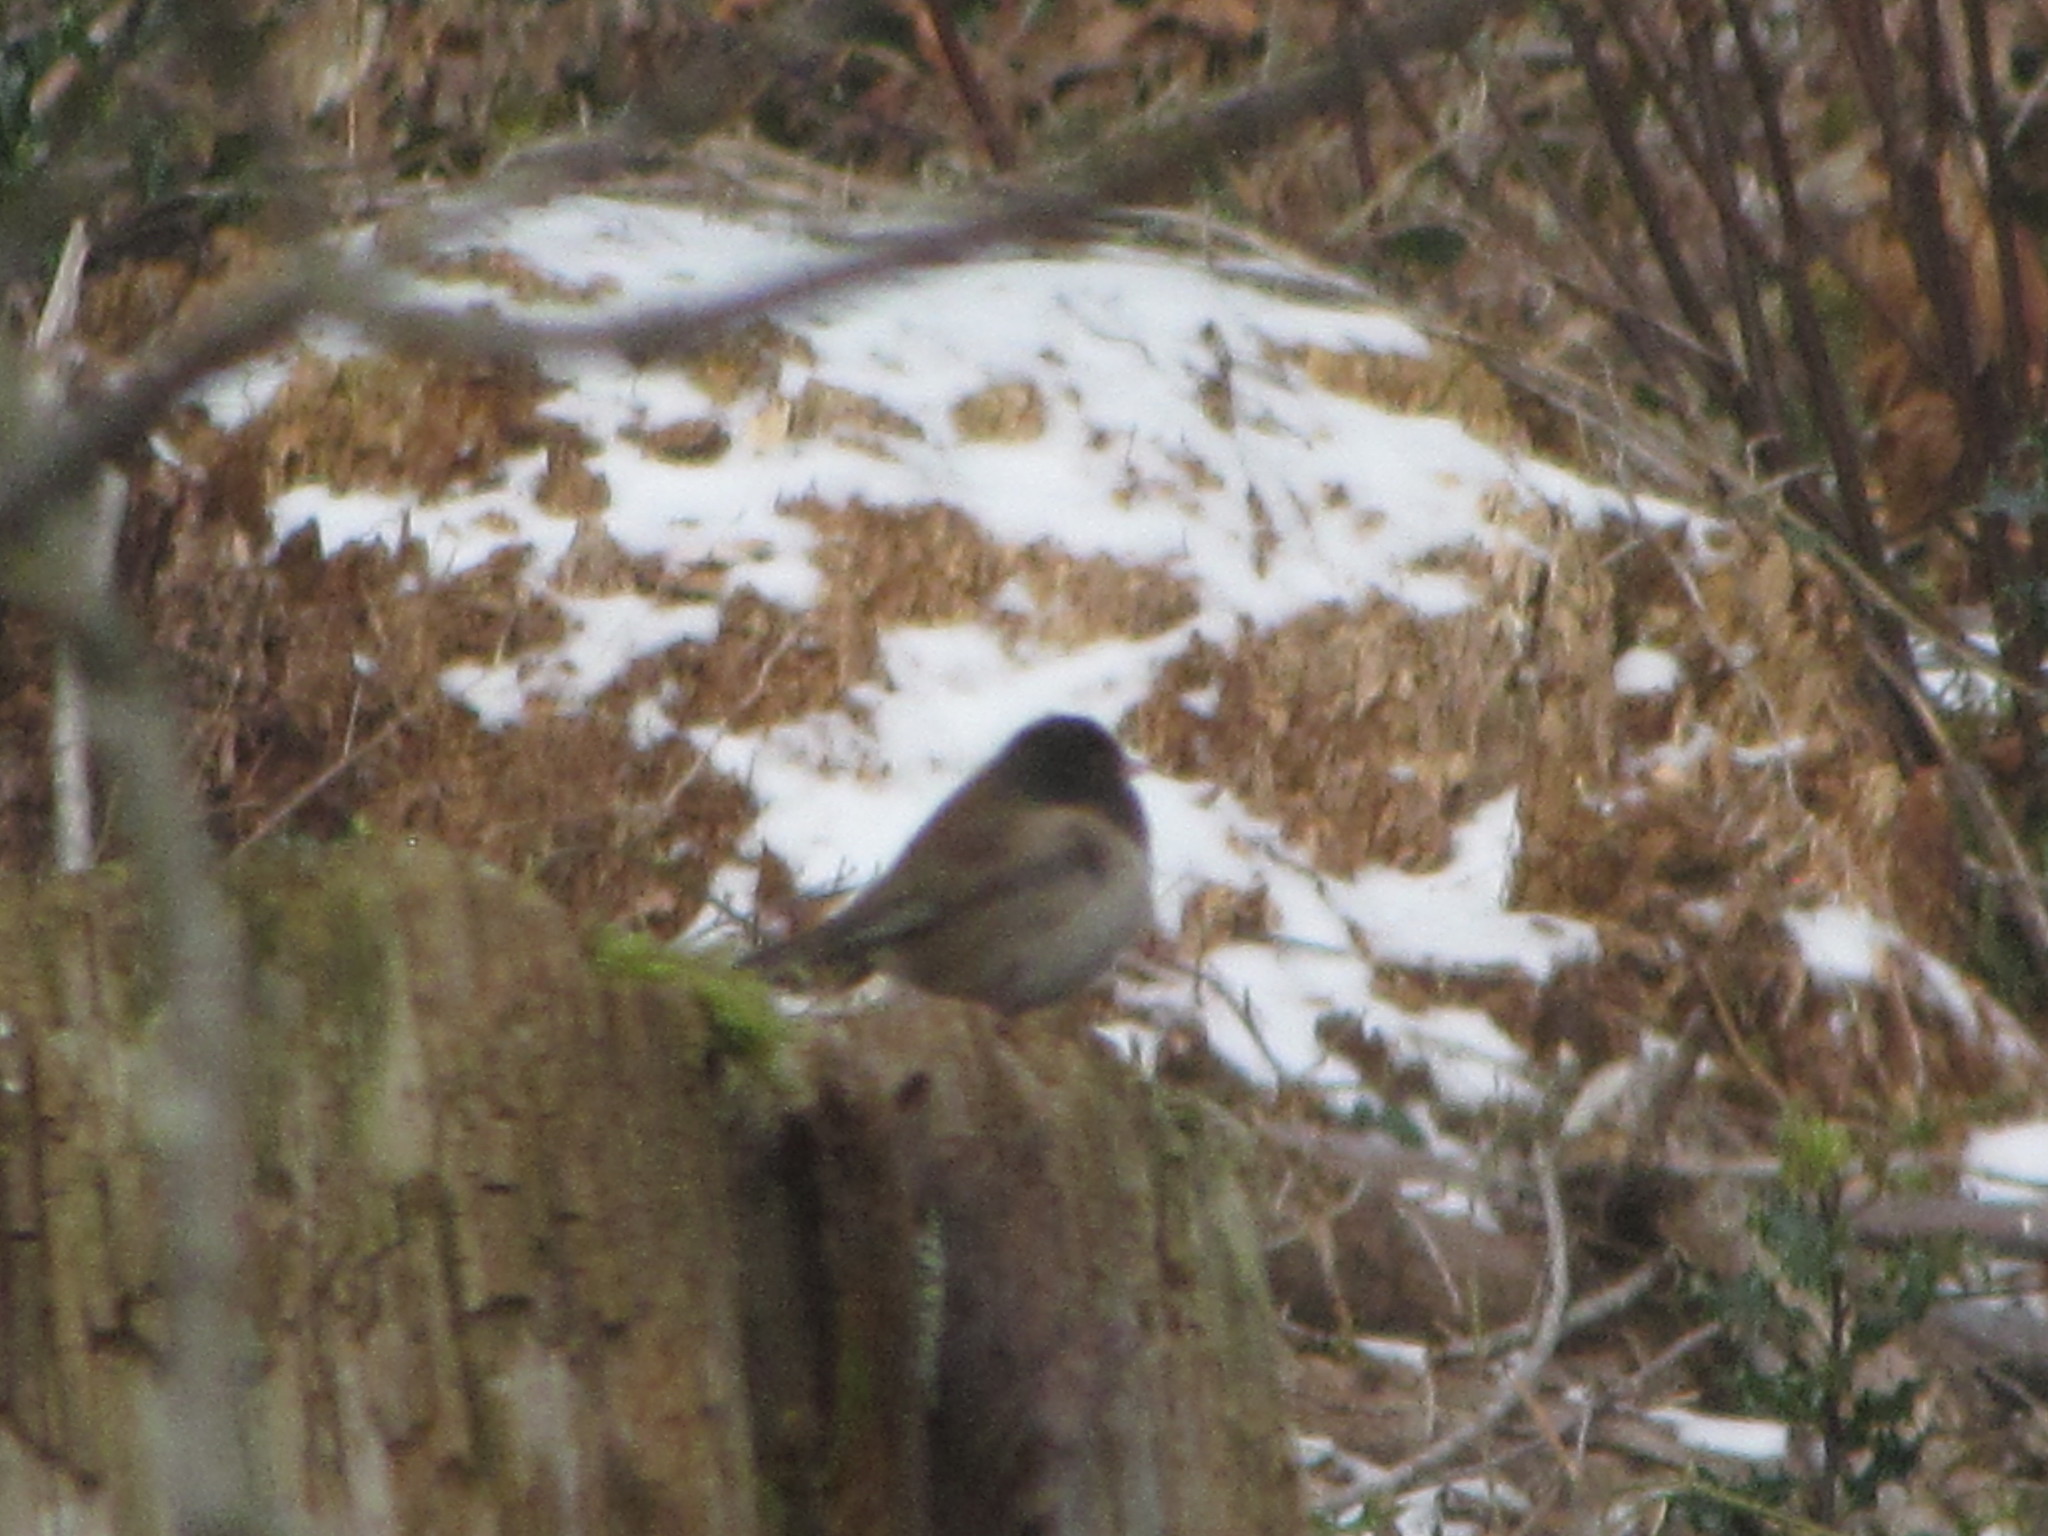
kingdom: Animalia
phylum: Chordata
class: Aves
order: Passeriformes
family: Passerellidae
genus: Junco
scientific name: Junco hyemalis
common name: Dark-eyed junco
